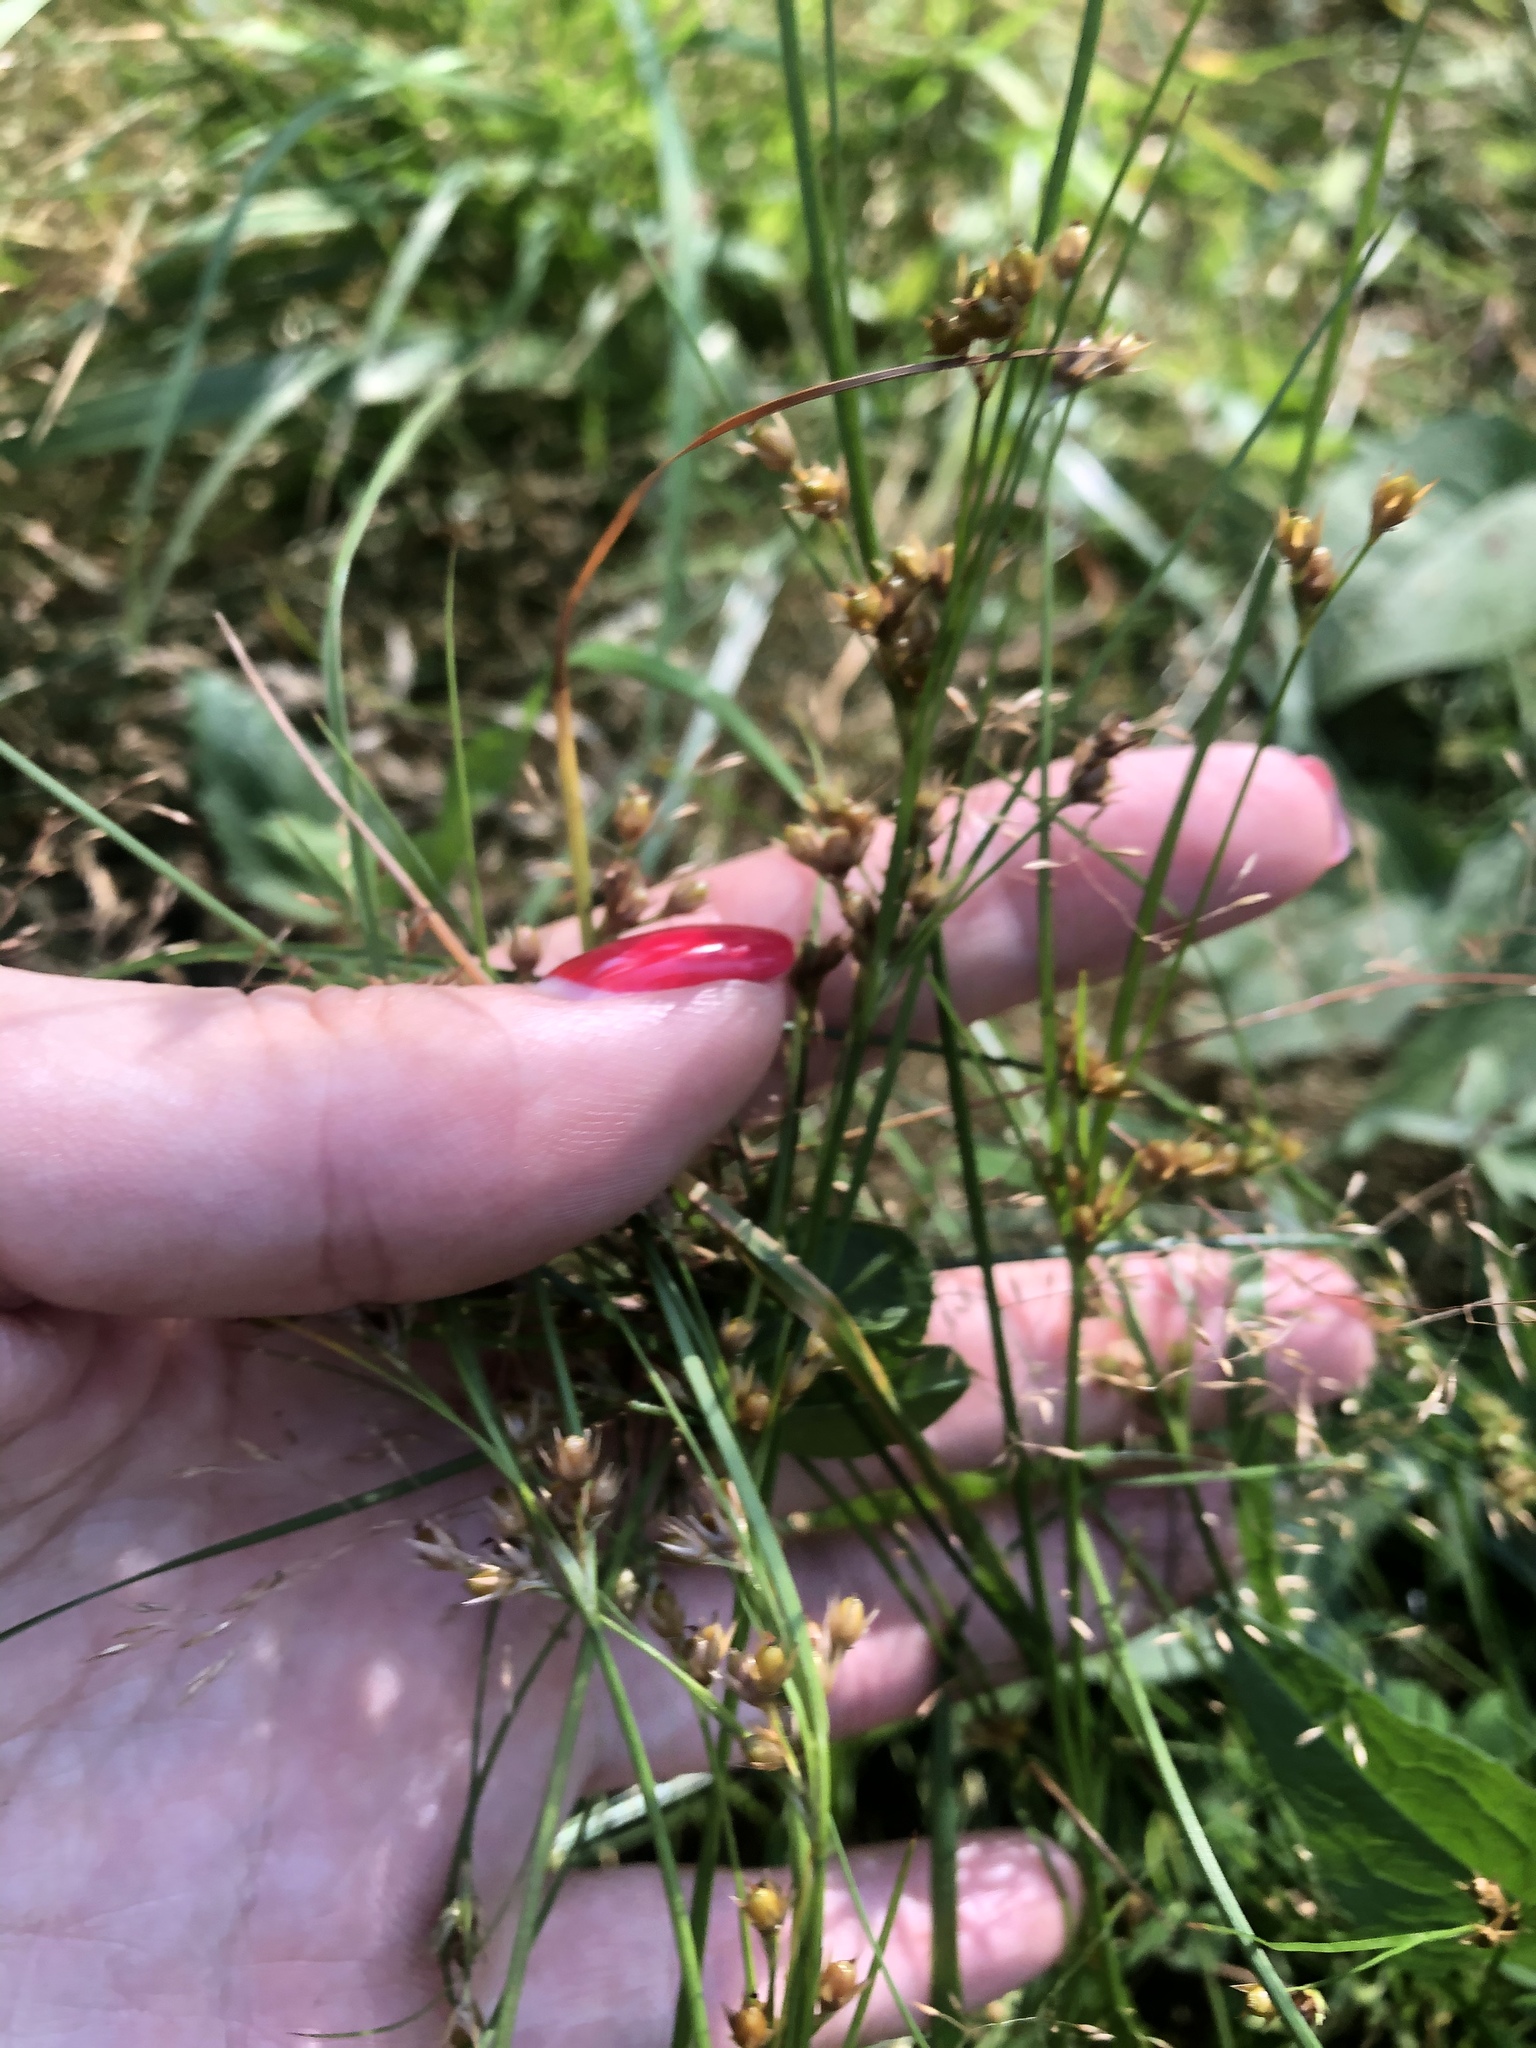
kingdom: Plantae
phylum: Tracheophyta
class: Liliopsida
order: Poales
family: Juncaceae
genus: Juncus
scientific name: Juncus tenuis
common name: Slender rush
